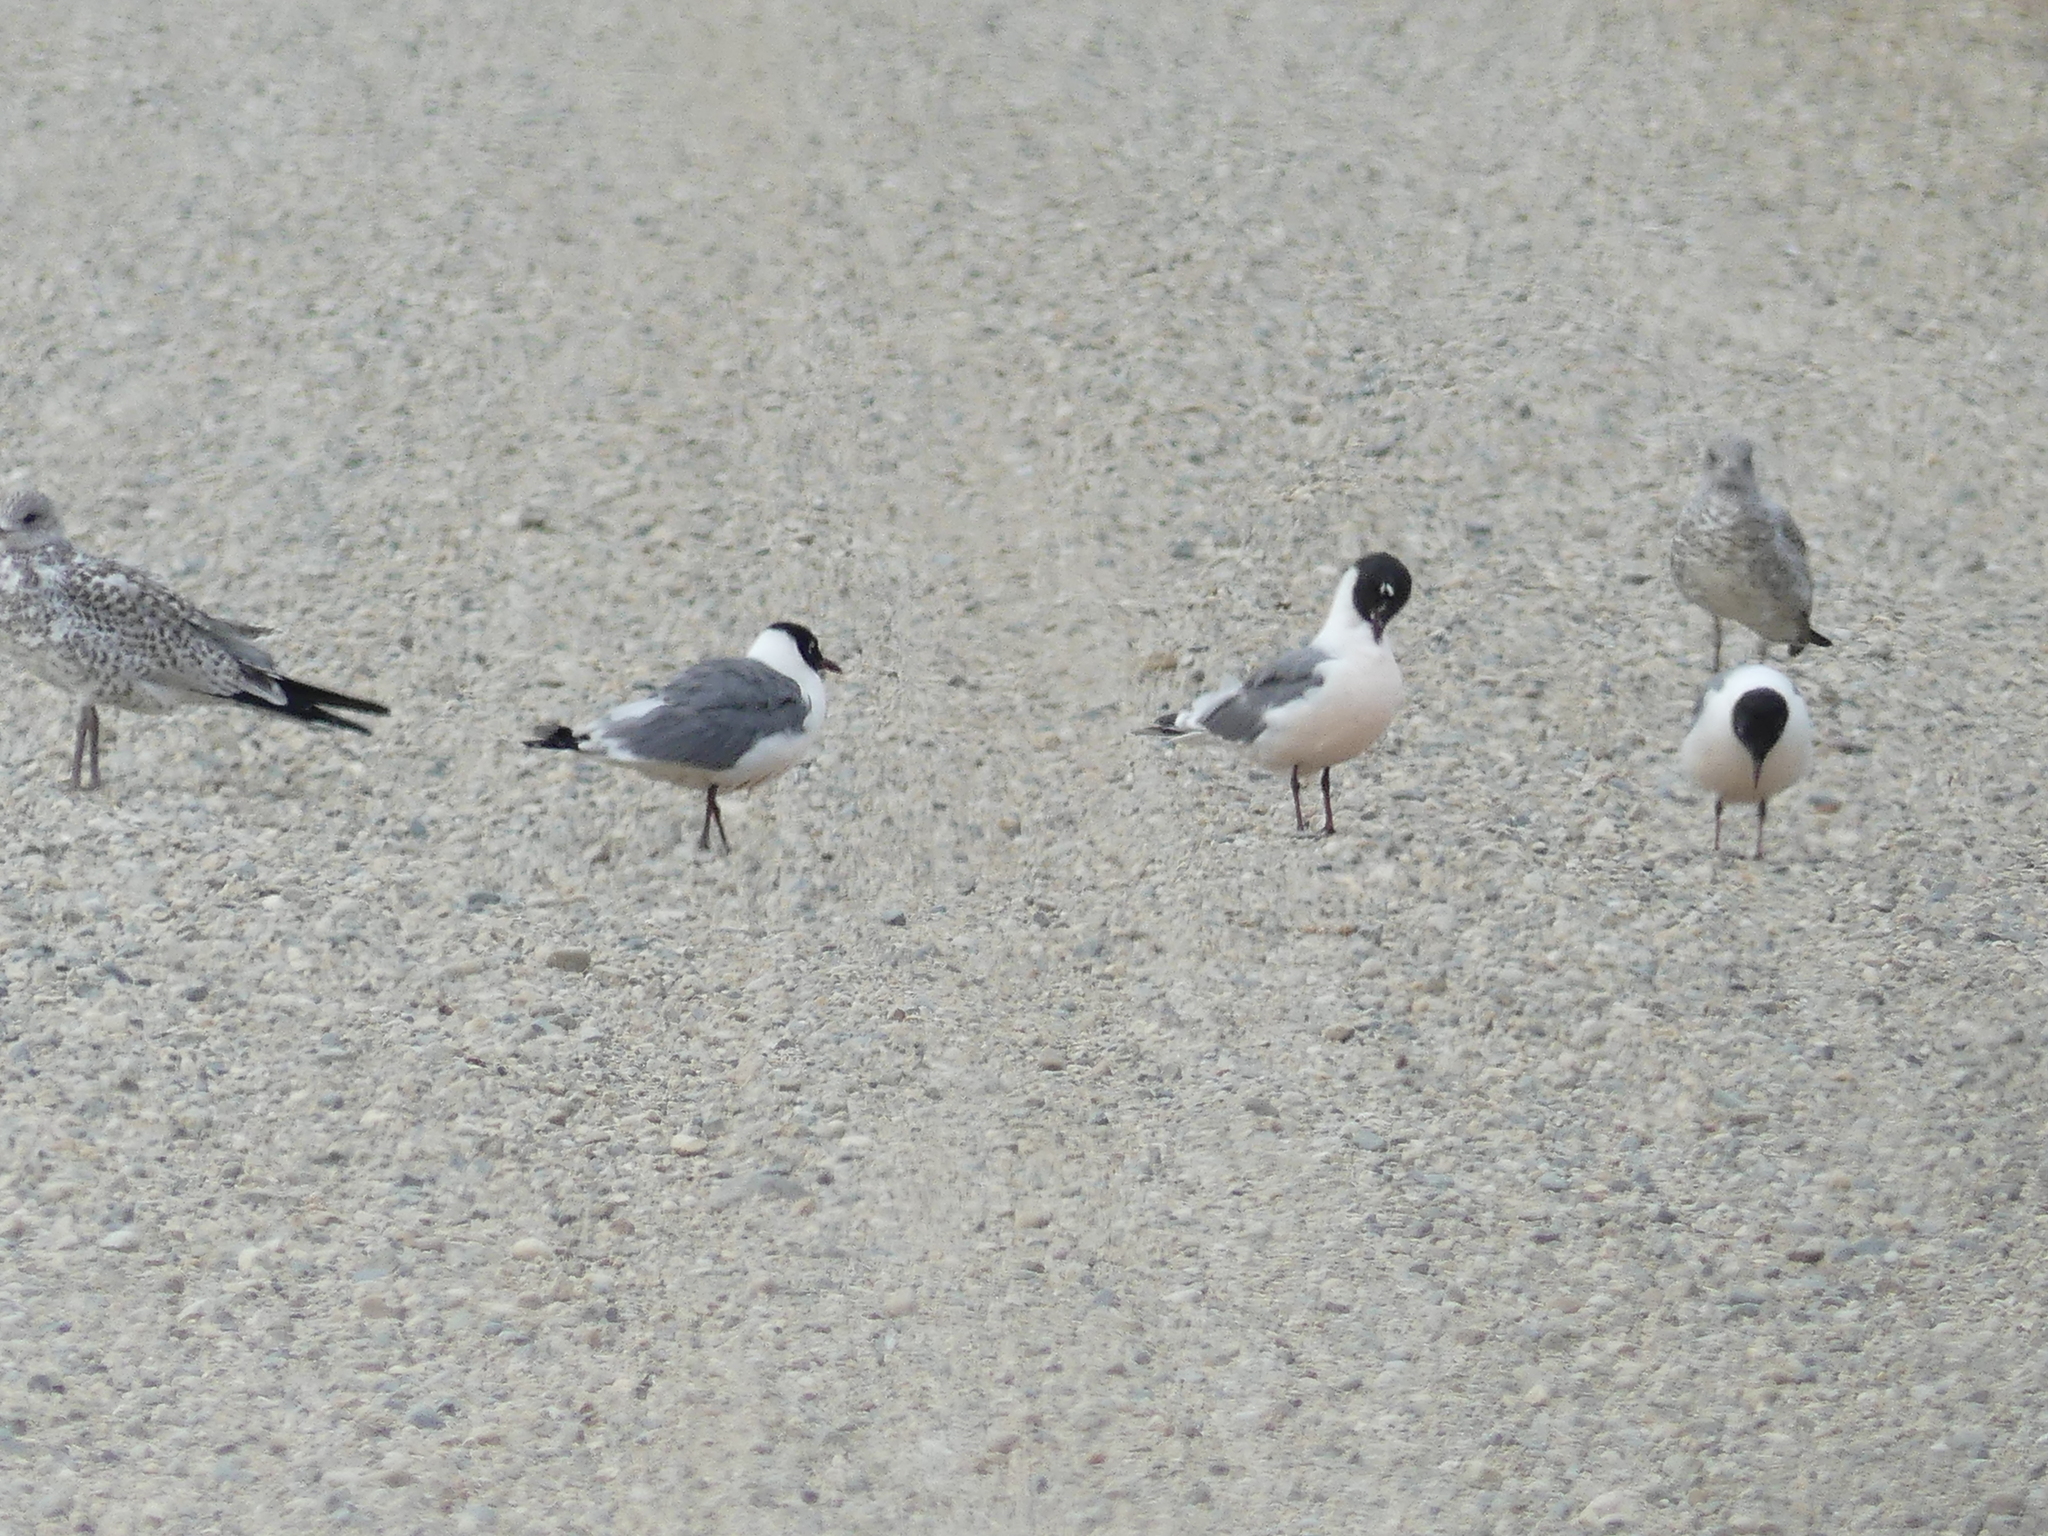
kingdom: Animalia
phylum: Chordata
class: Aves
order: Charadriiformes
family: Laridae
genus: Leucophaeus
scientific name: Leucophaeus pipixcan
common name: Franklin's gull
